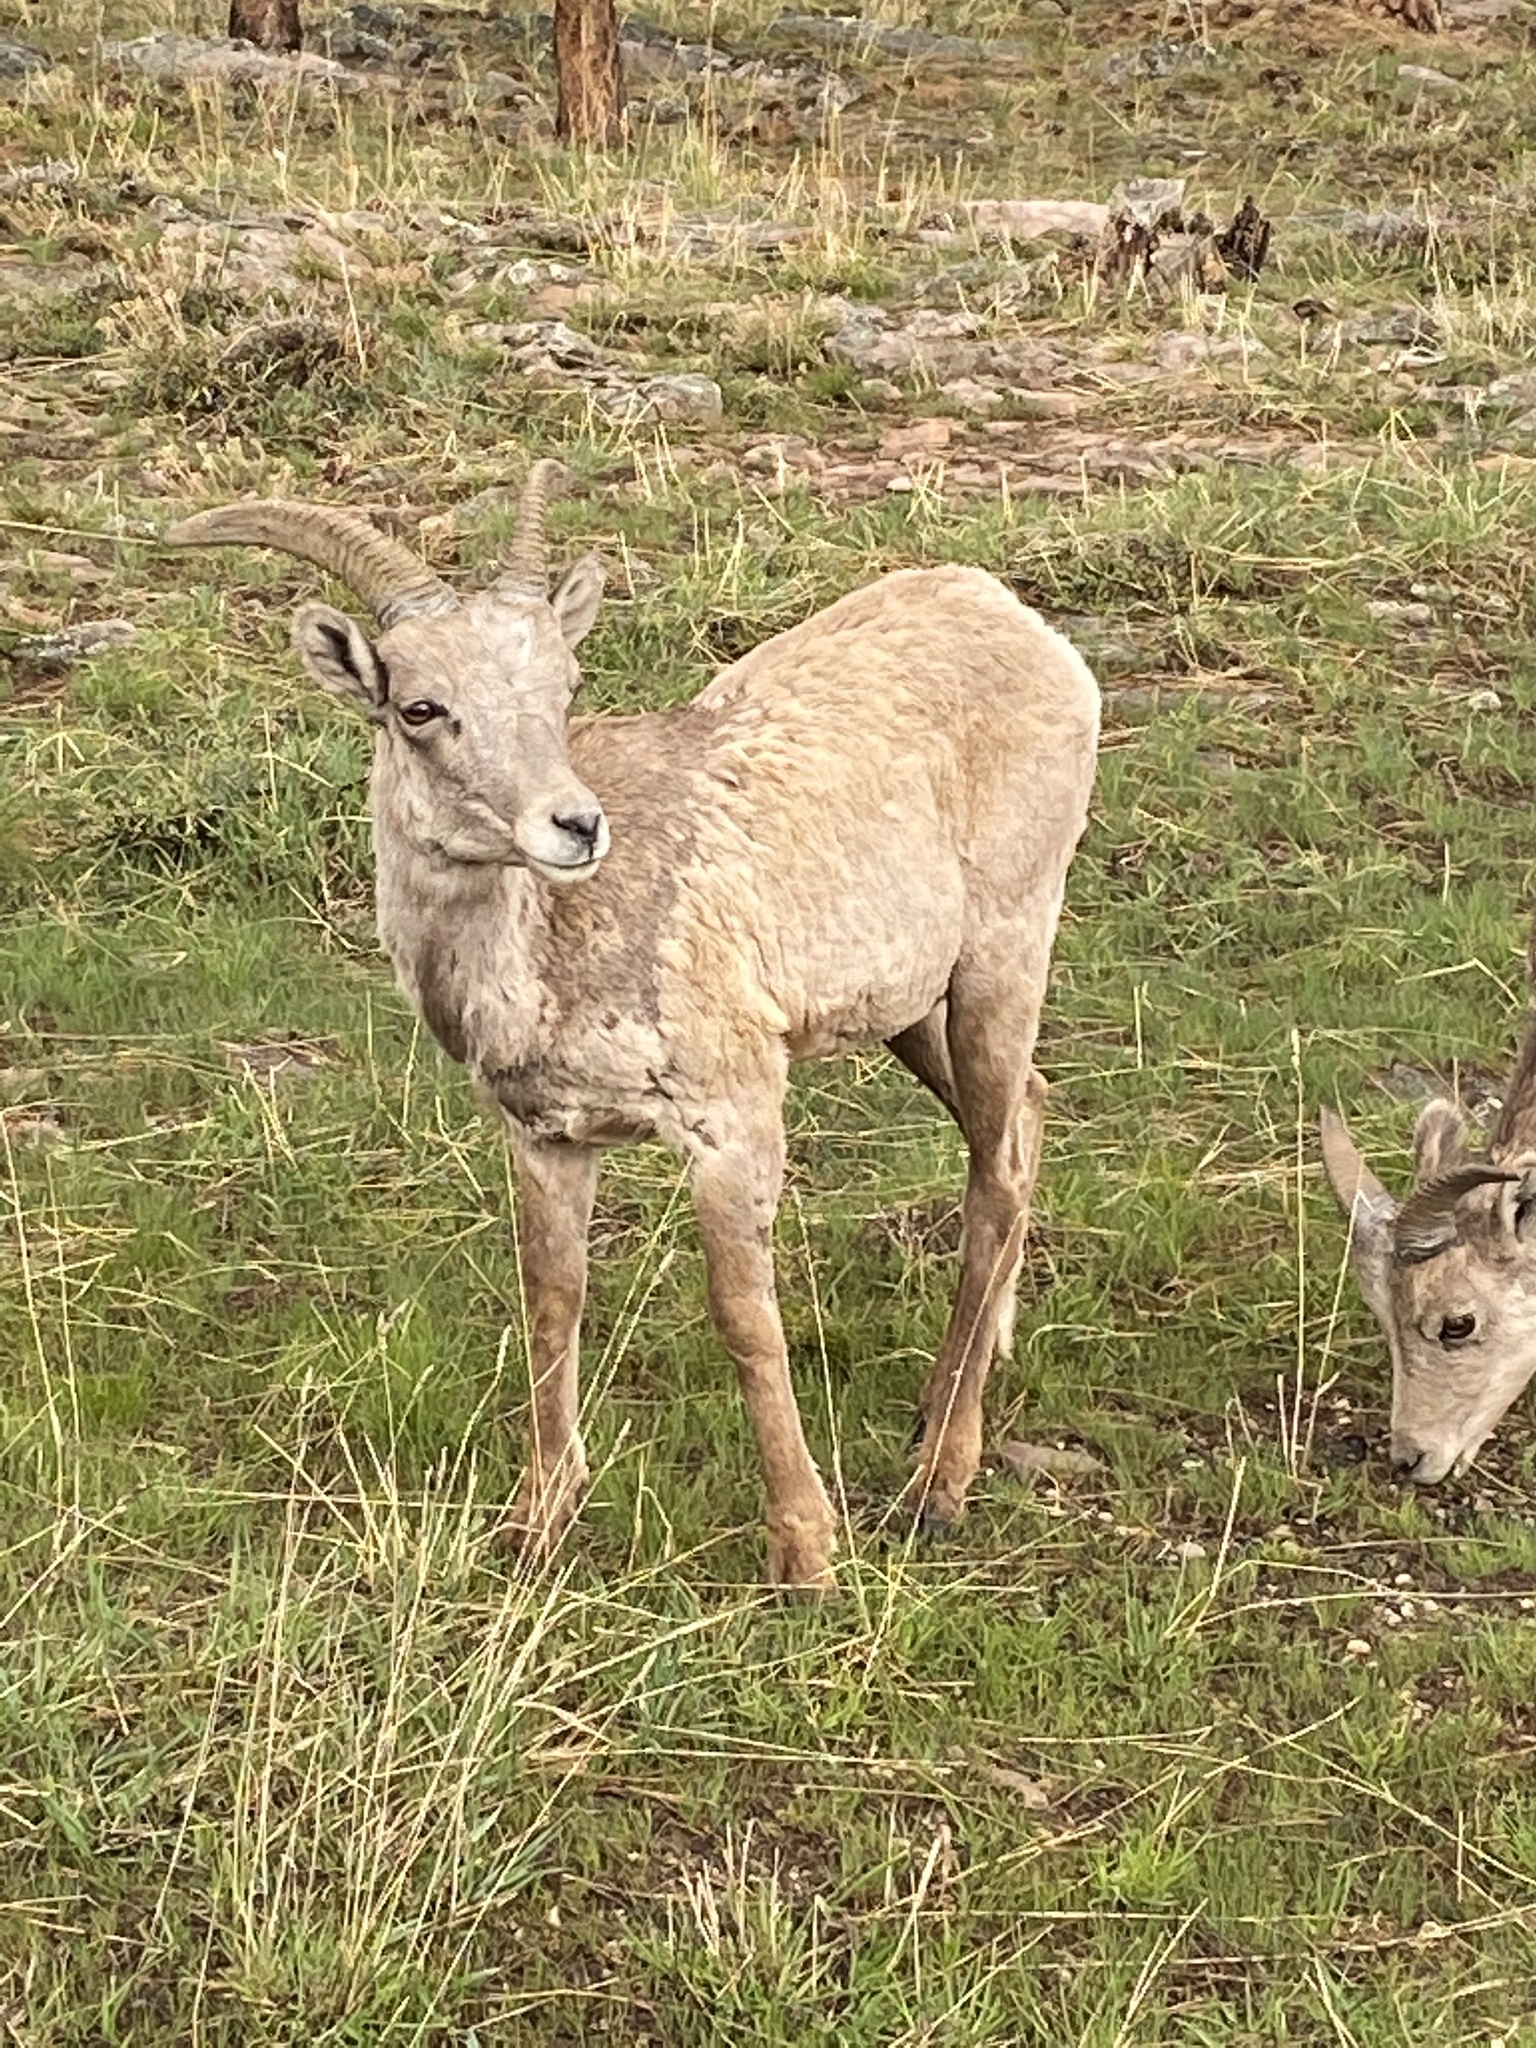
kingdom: Animalia
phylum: Chordata
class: Mammalia
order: Artiodactyla
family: Bovidae
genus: Ovis
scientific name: Ovis canadensis
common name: Bighorn sheep
